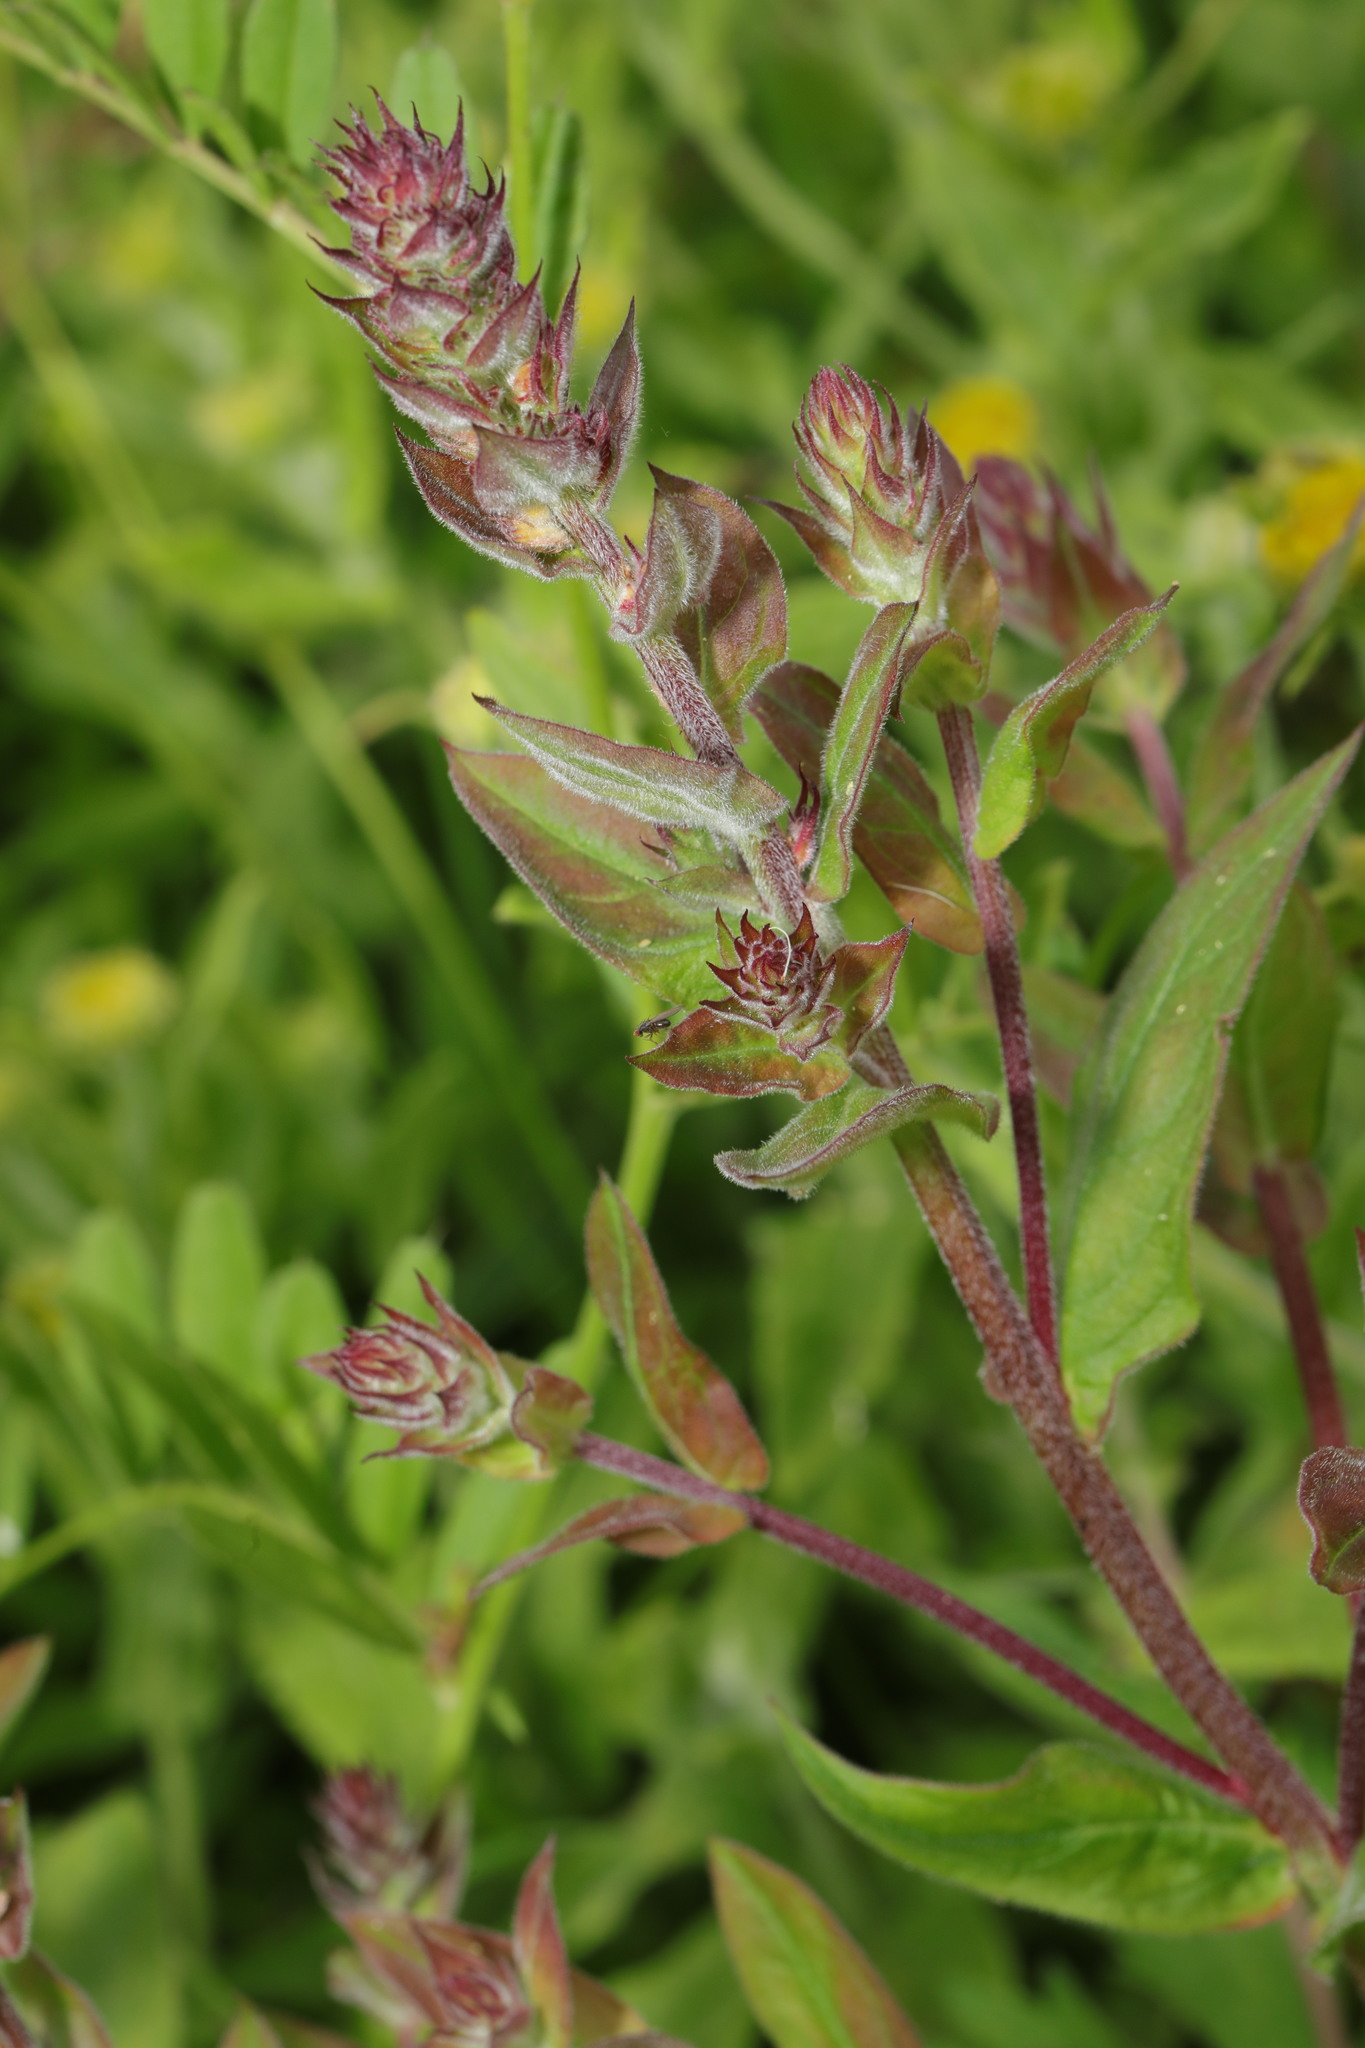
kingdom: Plantae
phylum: Tracheophyta
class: Magnoliopsida
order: Myrtales
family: Lythraceae
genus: Lythrum
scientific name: Lythrum salicaria
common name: Purple loosestrife
